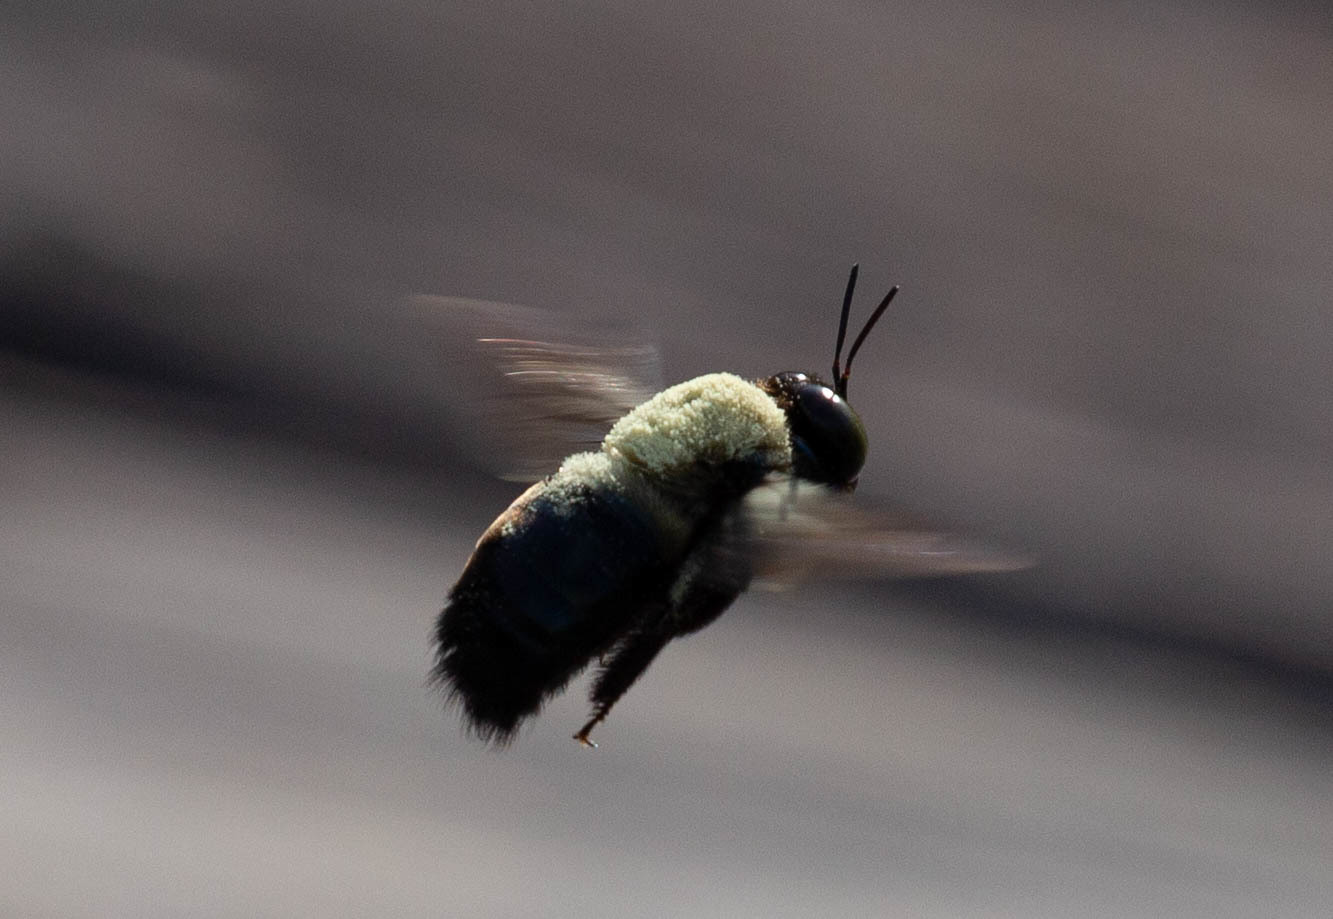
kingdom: Animalia
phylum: Arthropoda
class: Insecta
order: Hymenoptera
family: Apidae
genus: Xylocopa
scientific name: Xylocopa virginica
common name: Carpenter bee
